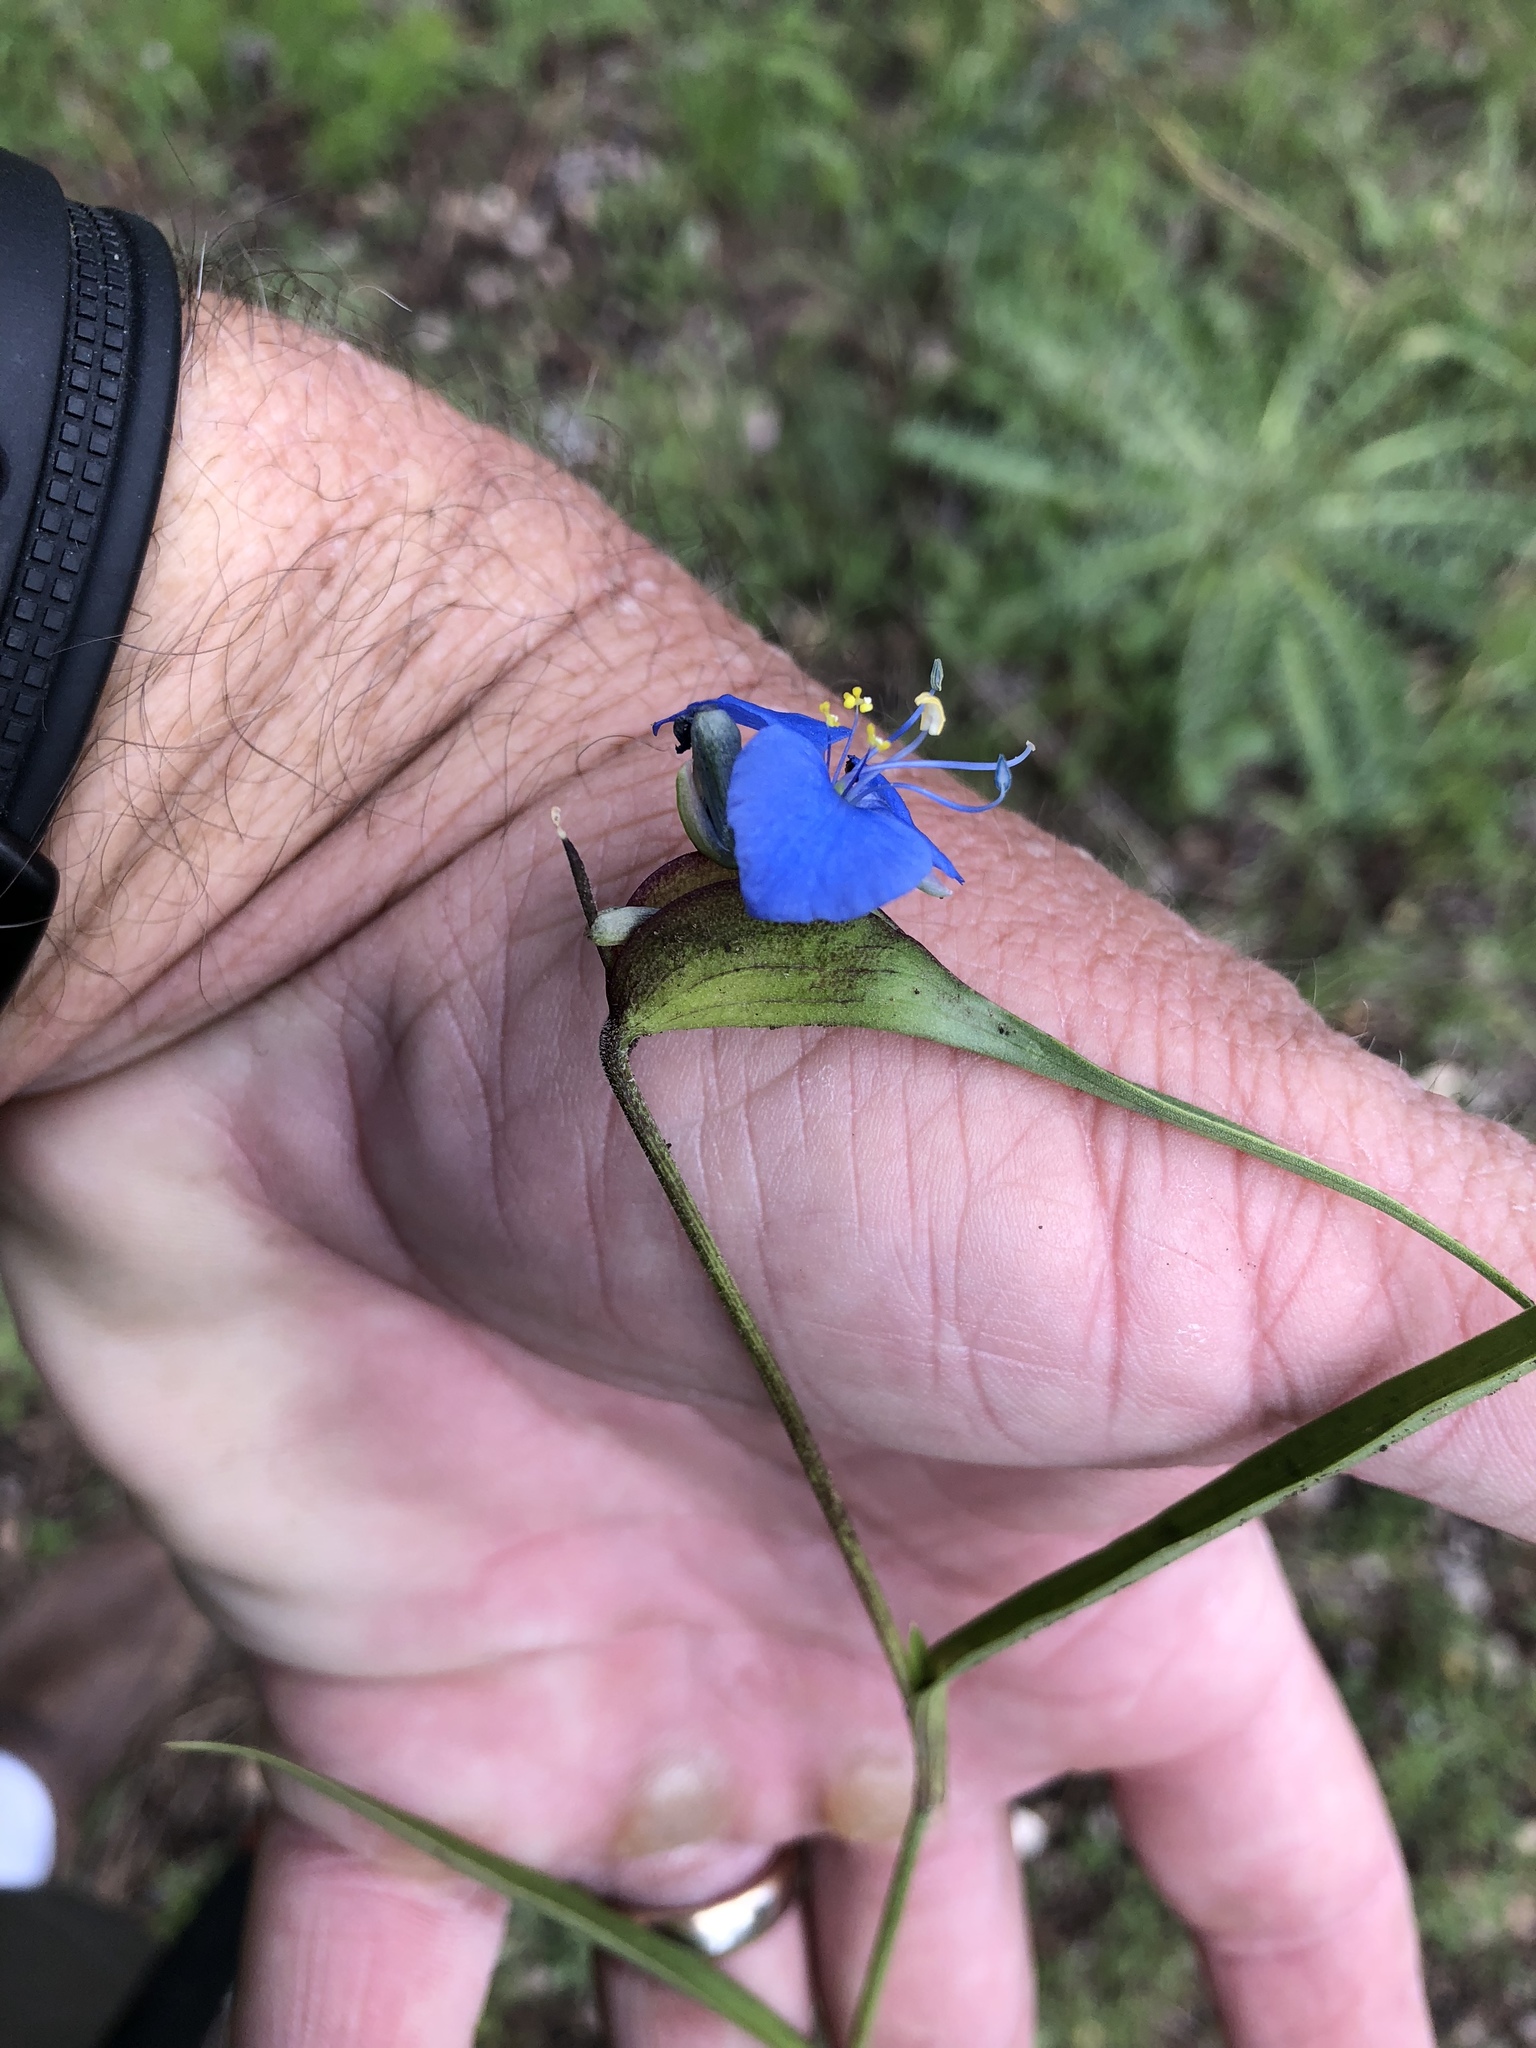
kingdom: Plantae
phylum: Tracheophyta
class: Liliopsida
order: Commelinales
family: Commelinaceae
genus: Commelina
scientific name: Commelina dianthifolia
